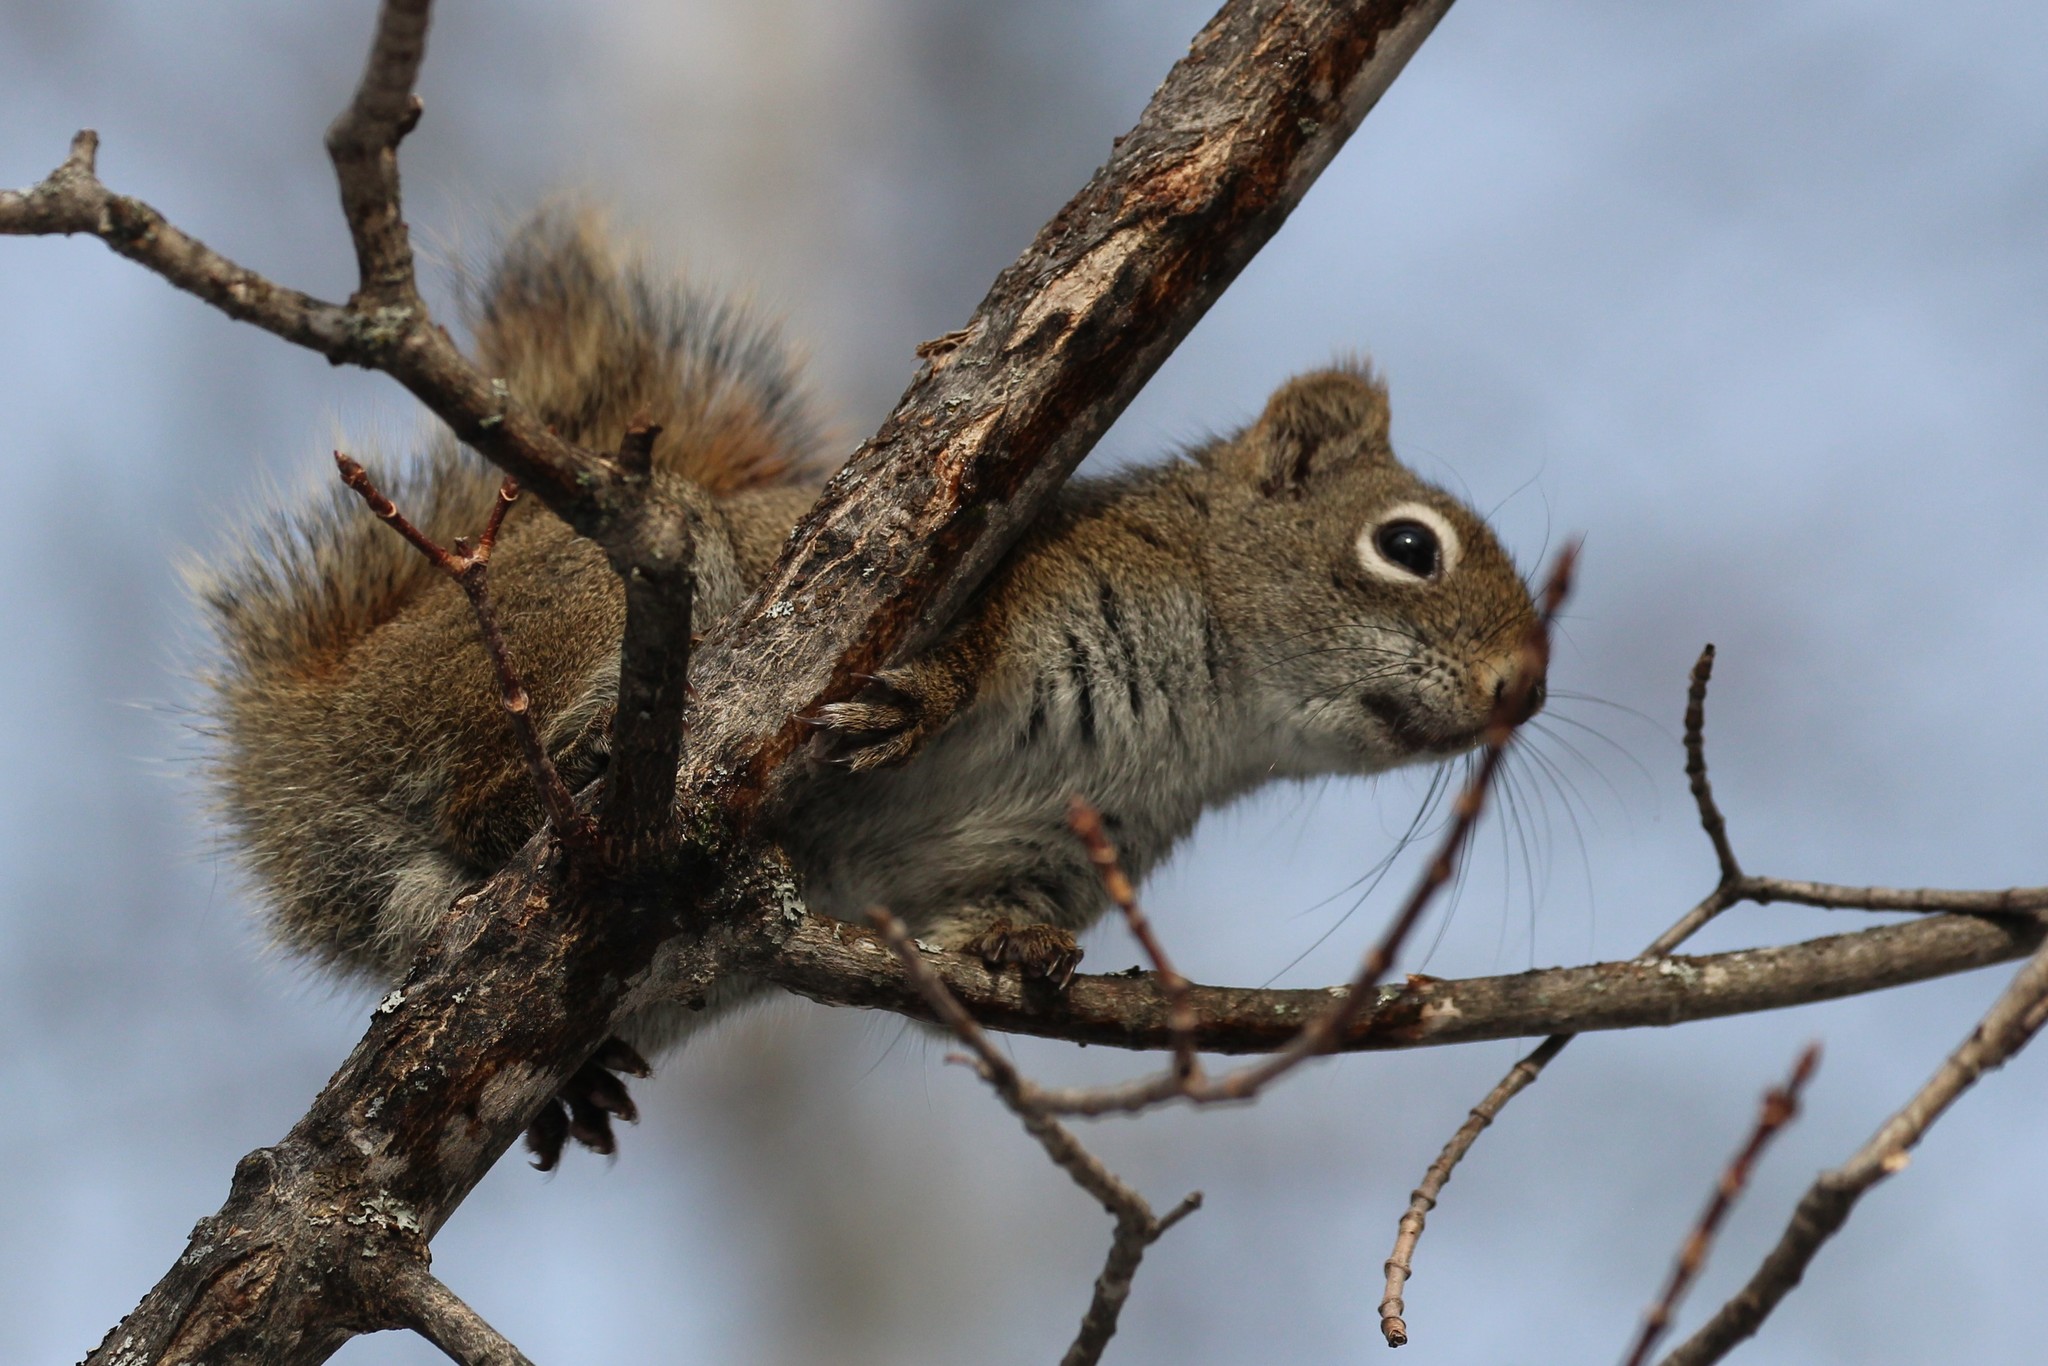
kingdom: Animalia
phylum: Chordata
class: Mammalia
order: Rodentia
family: Sciuridae
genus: Tamiasciurus
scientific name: Tamiasciurus hudsonicus
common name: Red squirrel
